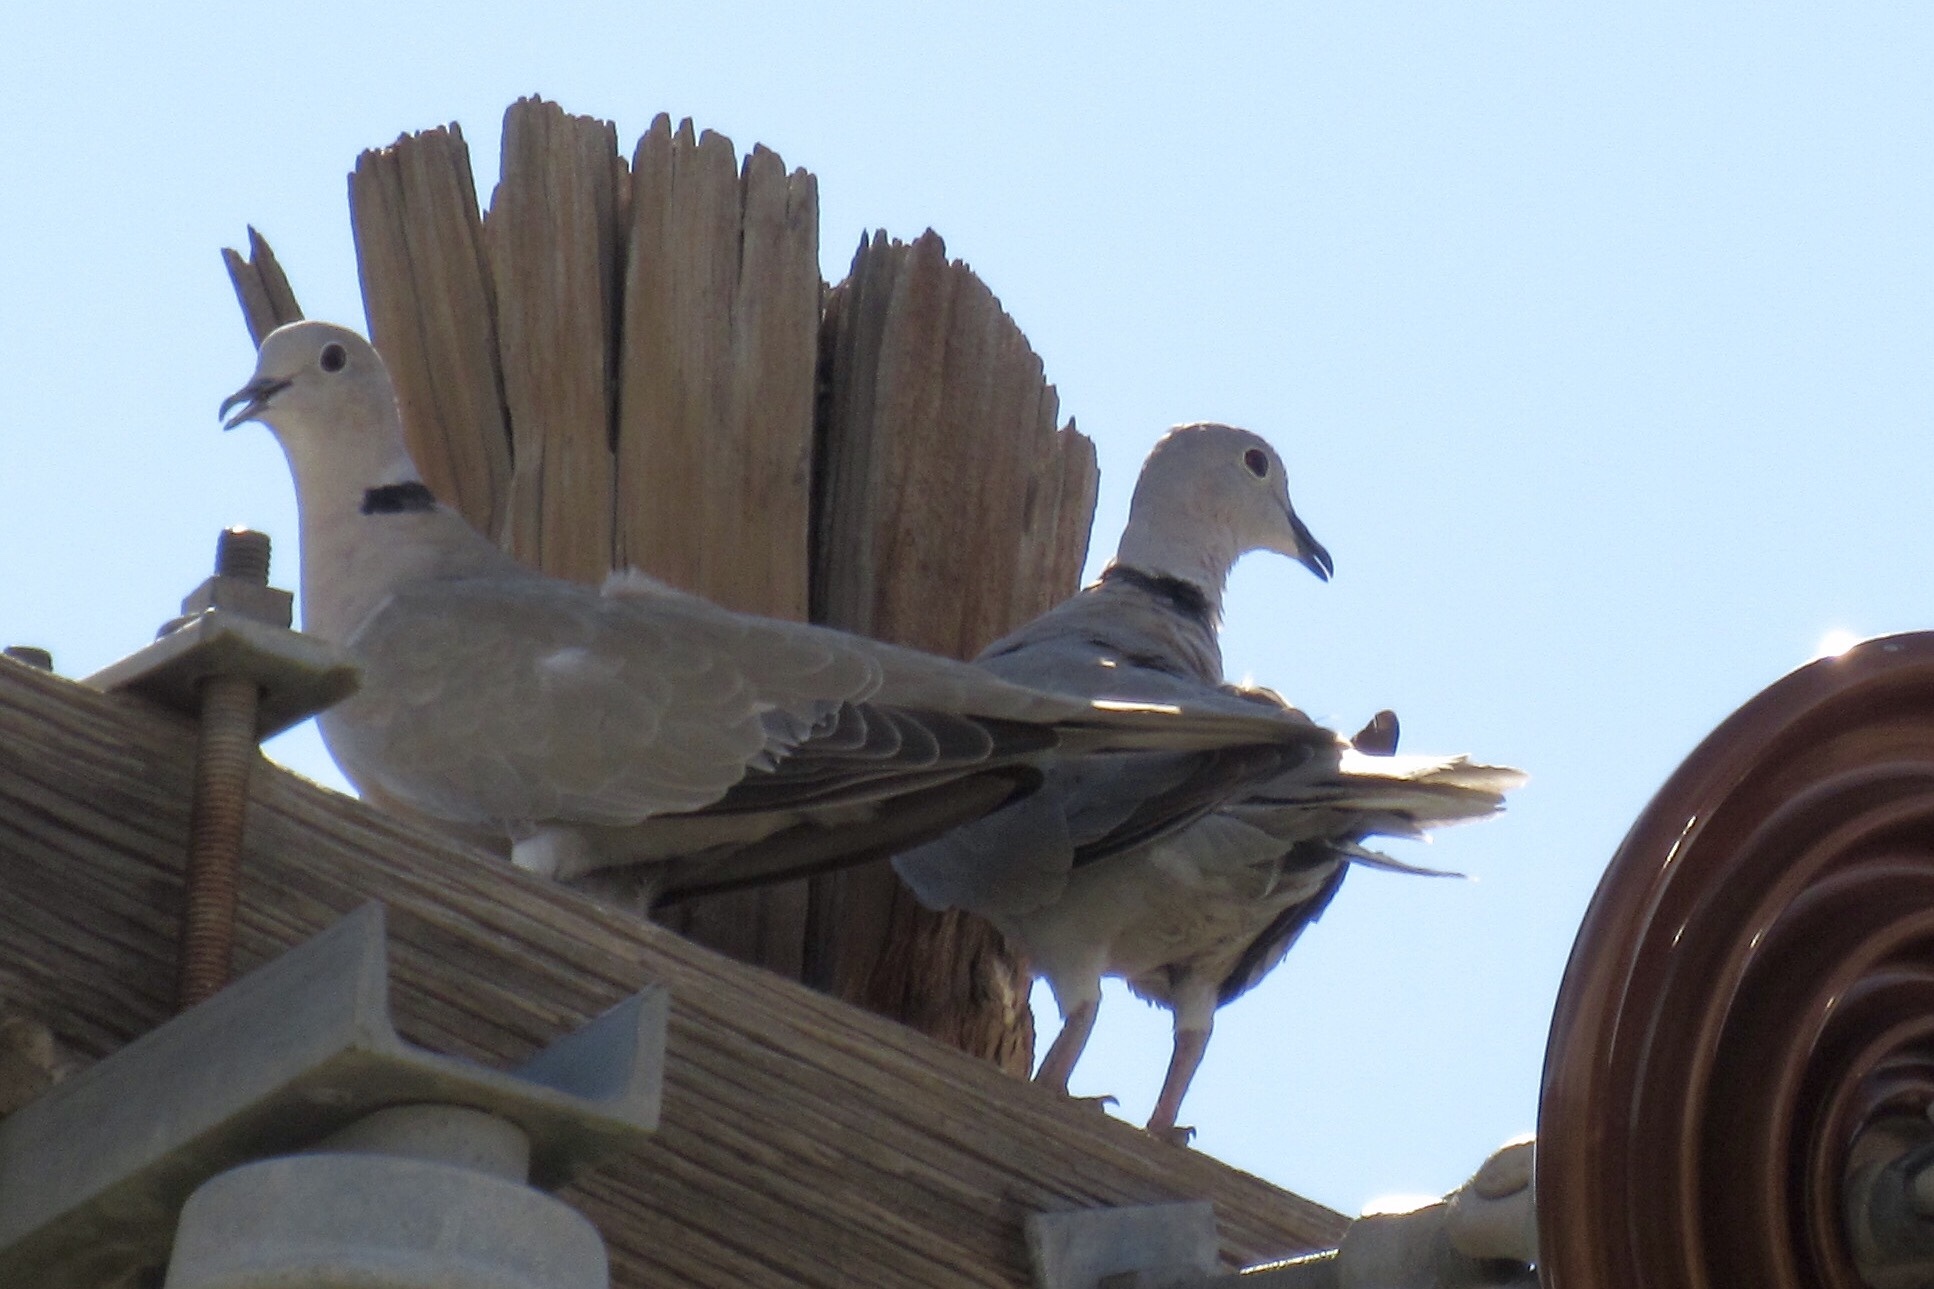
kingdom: Animalia
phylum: Chordata
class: Aves
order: Columbiformes
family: Columbidae
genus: Streptopelia
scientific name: Streptopelia decaocto
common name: Eurasian collared dove
